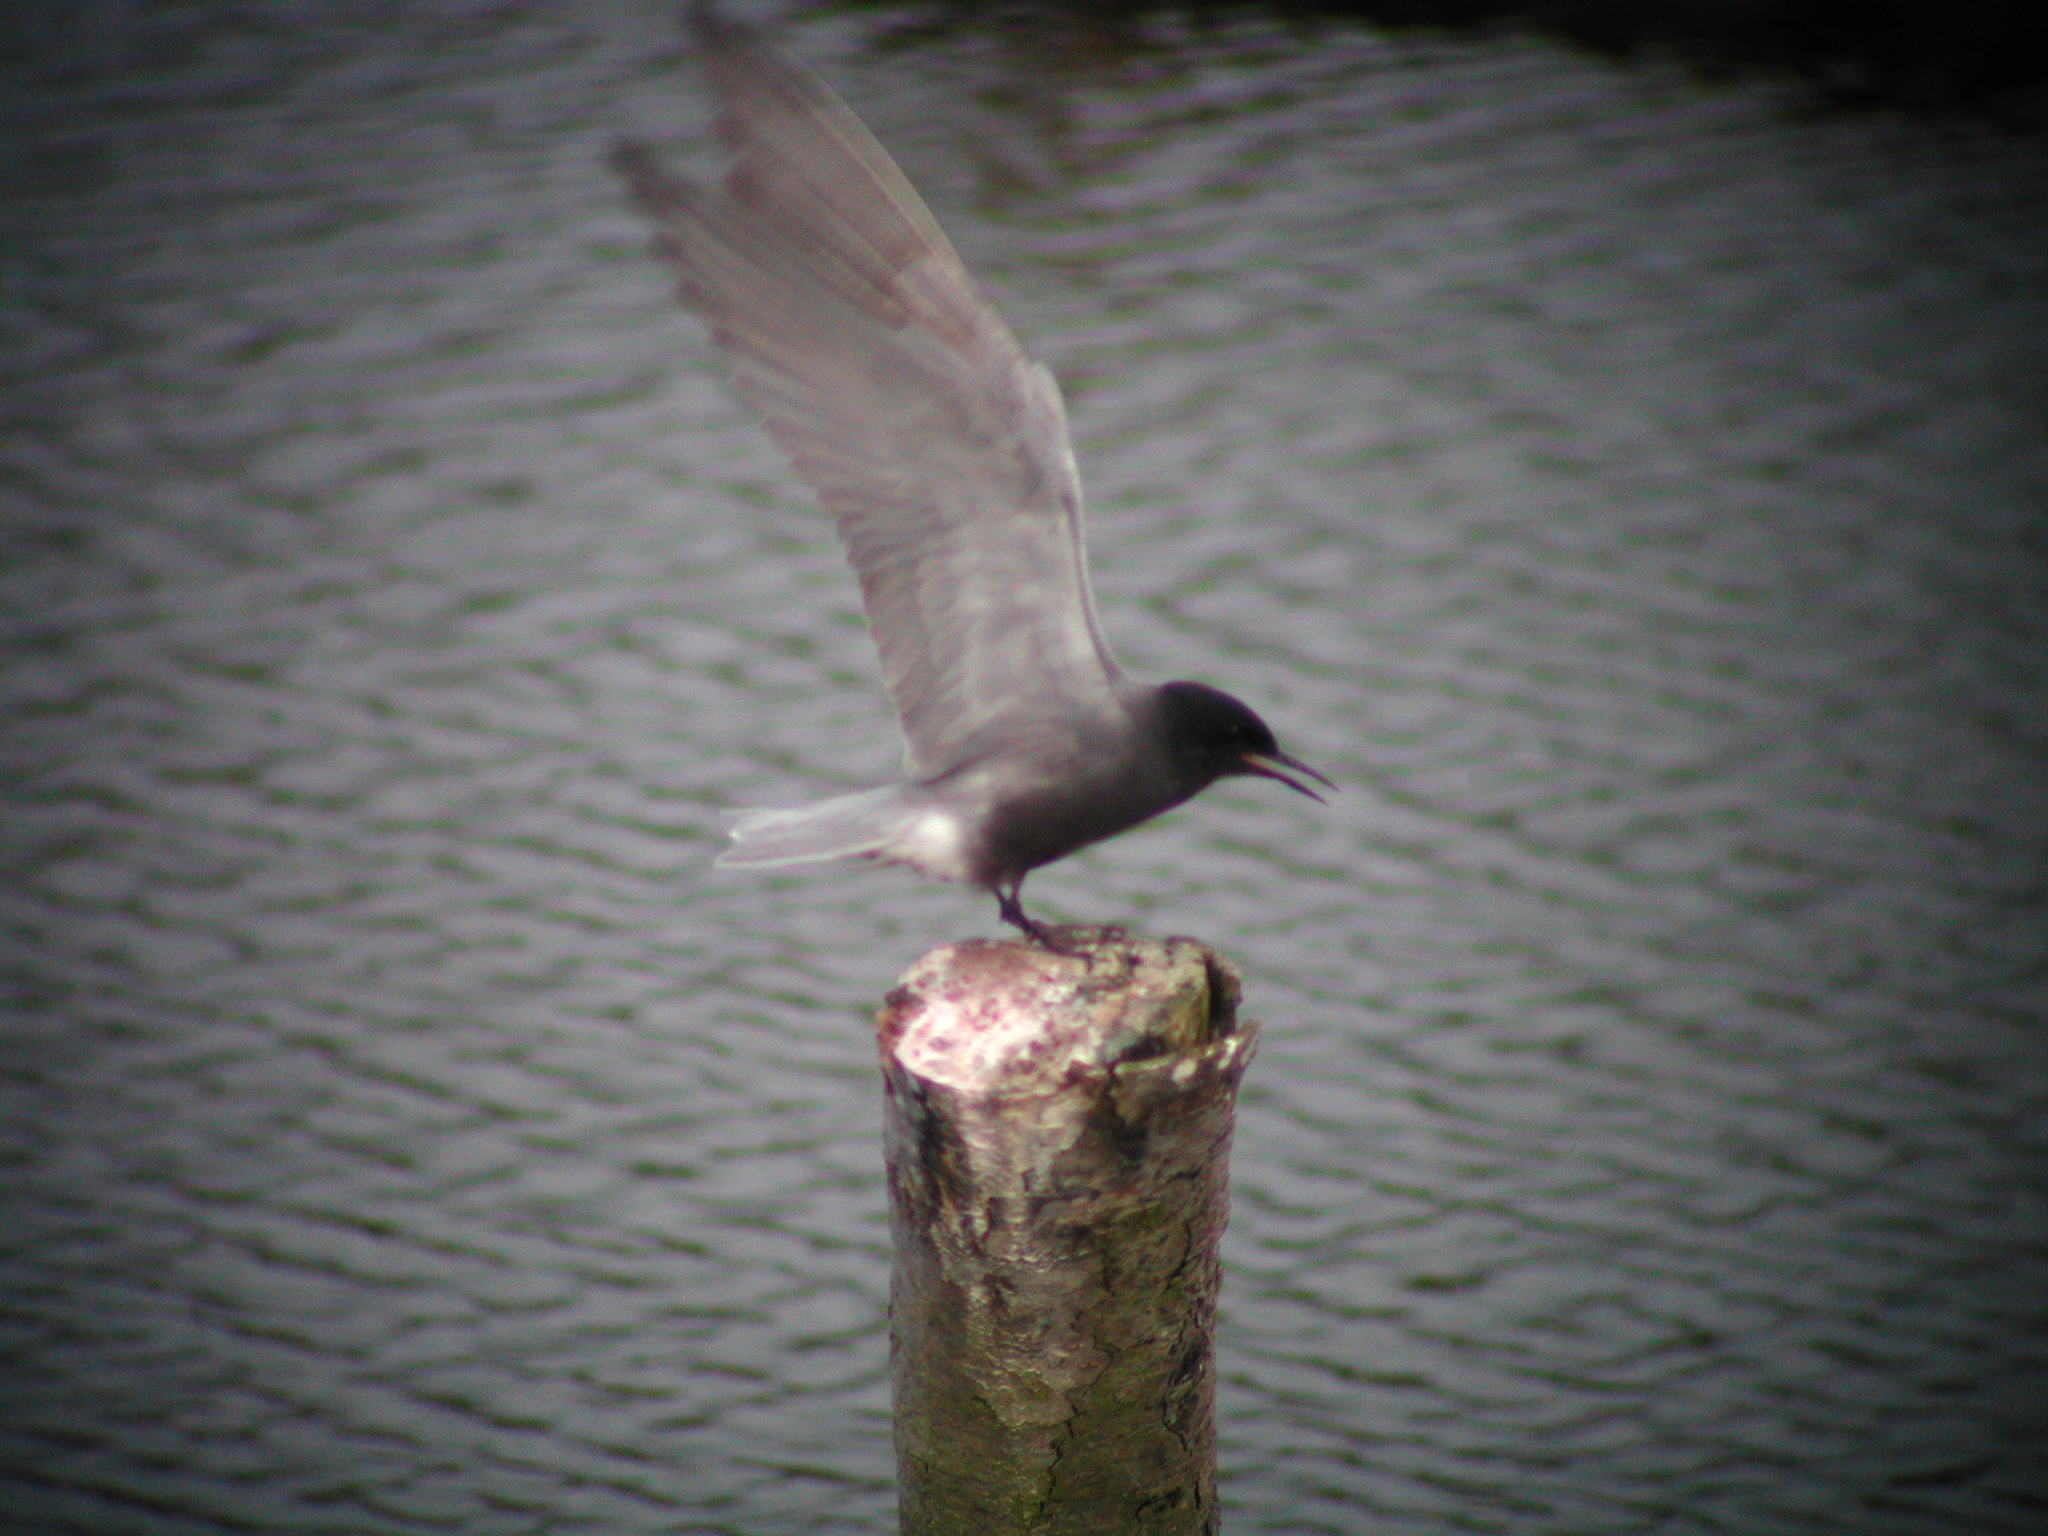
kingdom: Animalia
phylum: Chordata
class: Aves
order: Charadriiformes
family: Laridae
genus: Chlidonias
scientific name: Chlidonias niger
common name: Black tern
